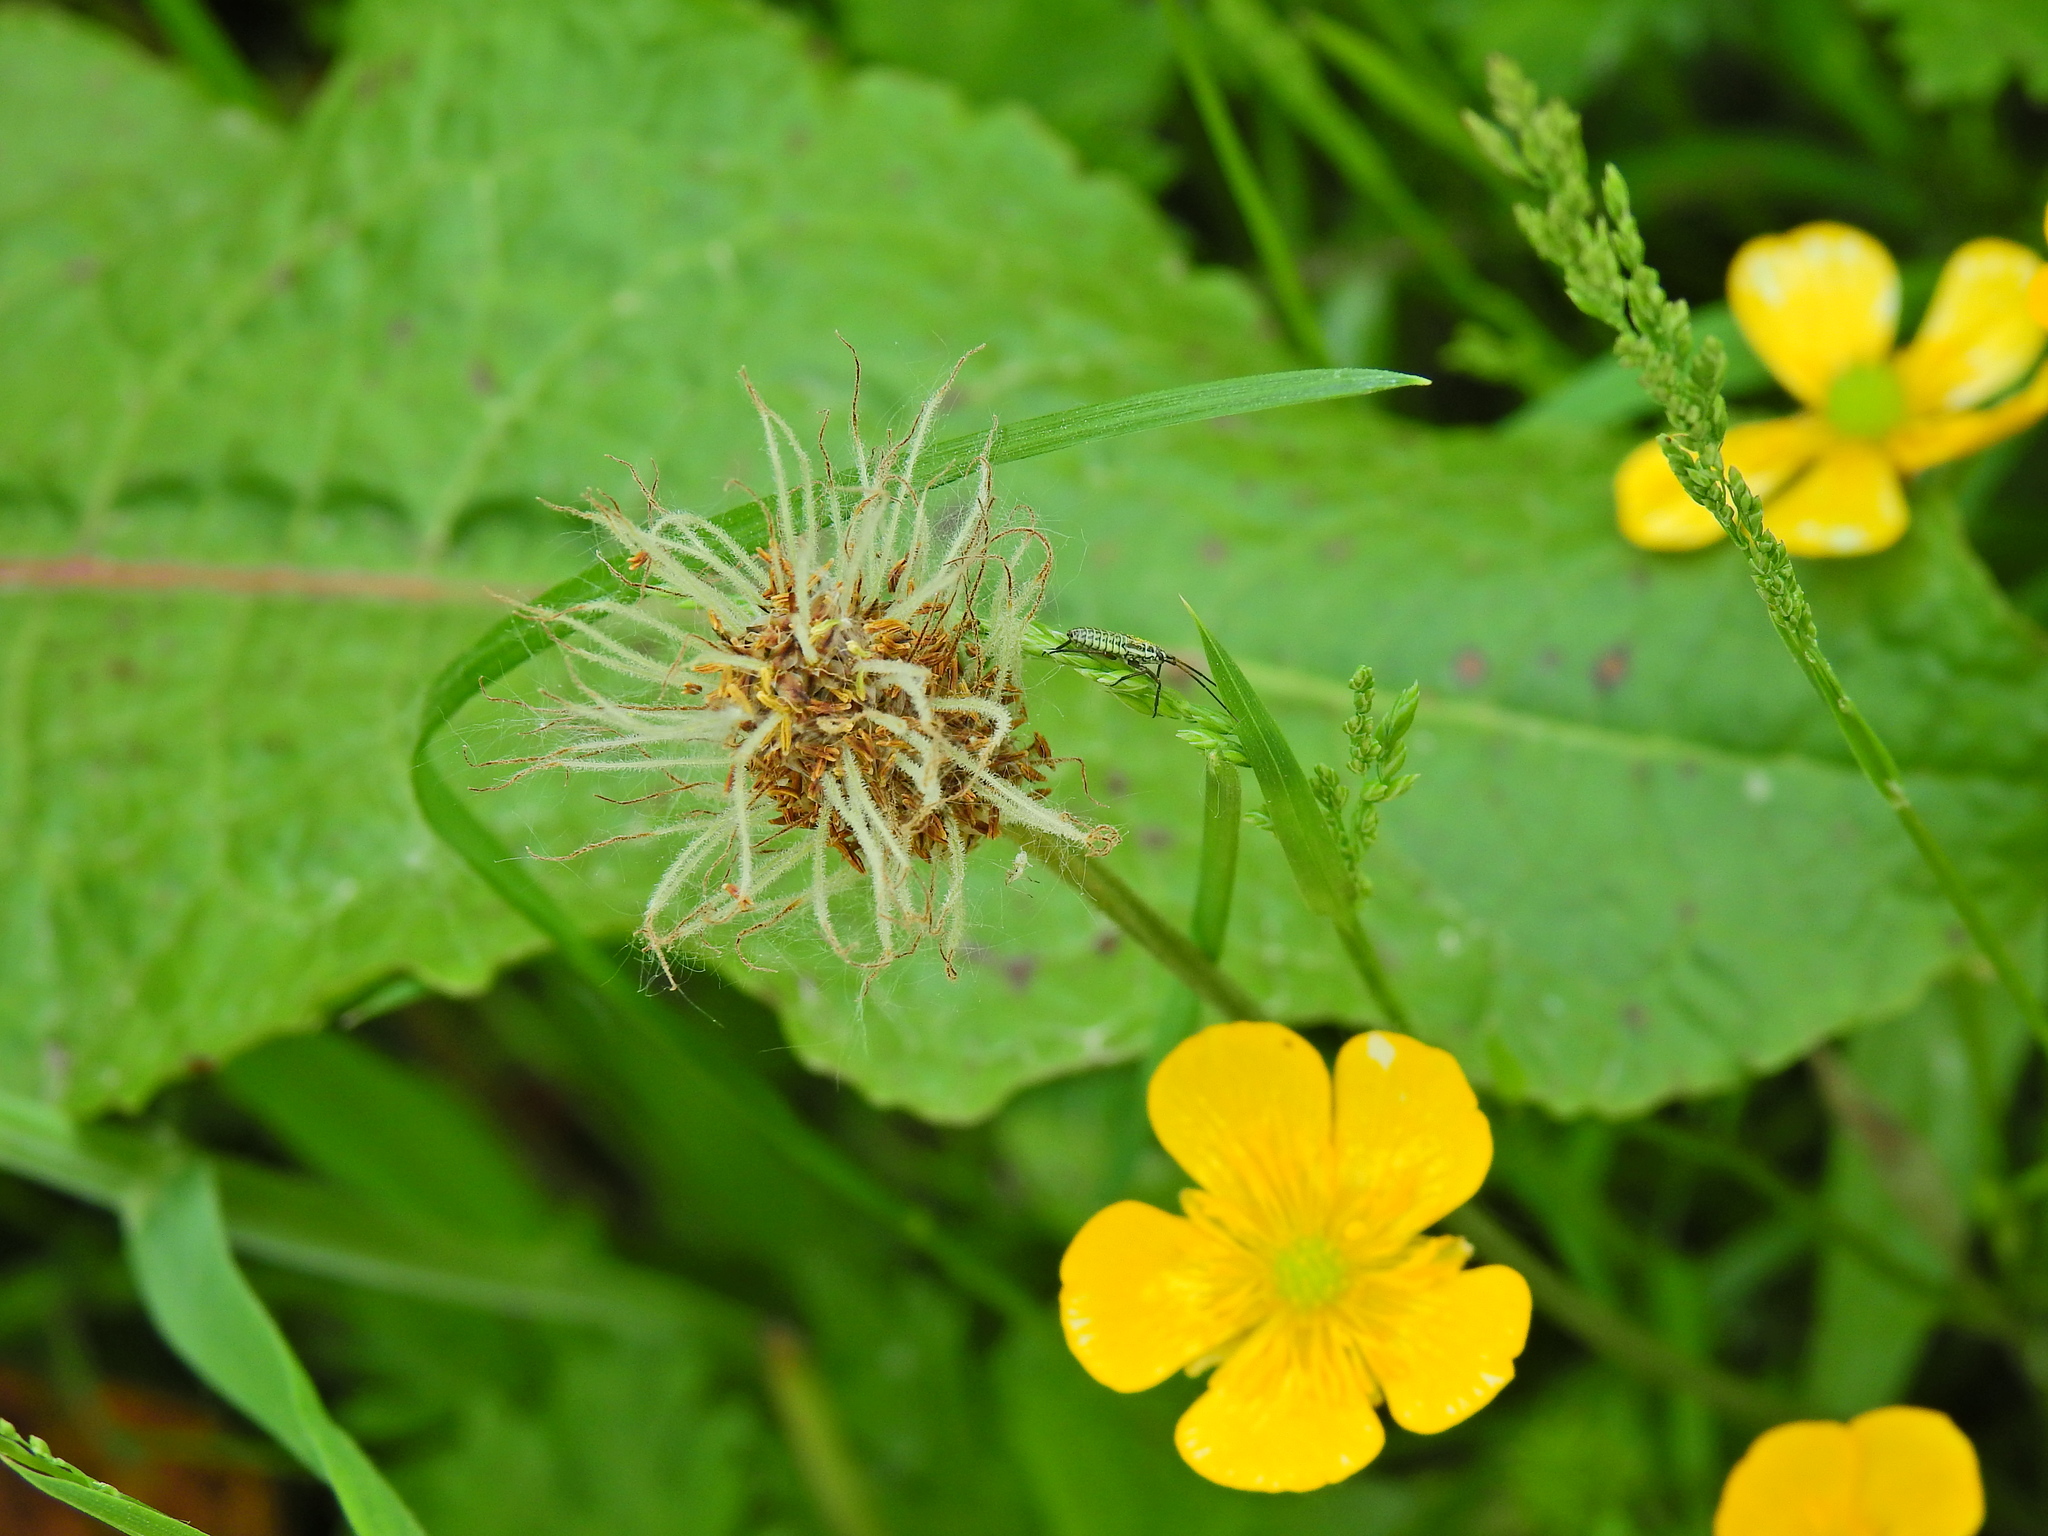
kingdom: Plantae
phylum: Tracheophyta
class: Magnoliopsida
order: Lamiales
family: Plantaginaceae
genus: Plantago
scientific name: Plantago lanceolata
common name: Ribwort plantain
